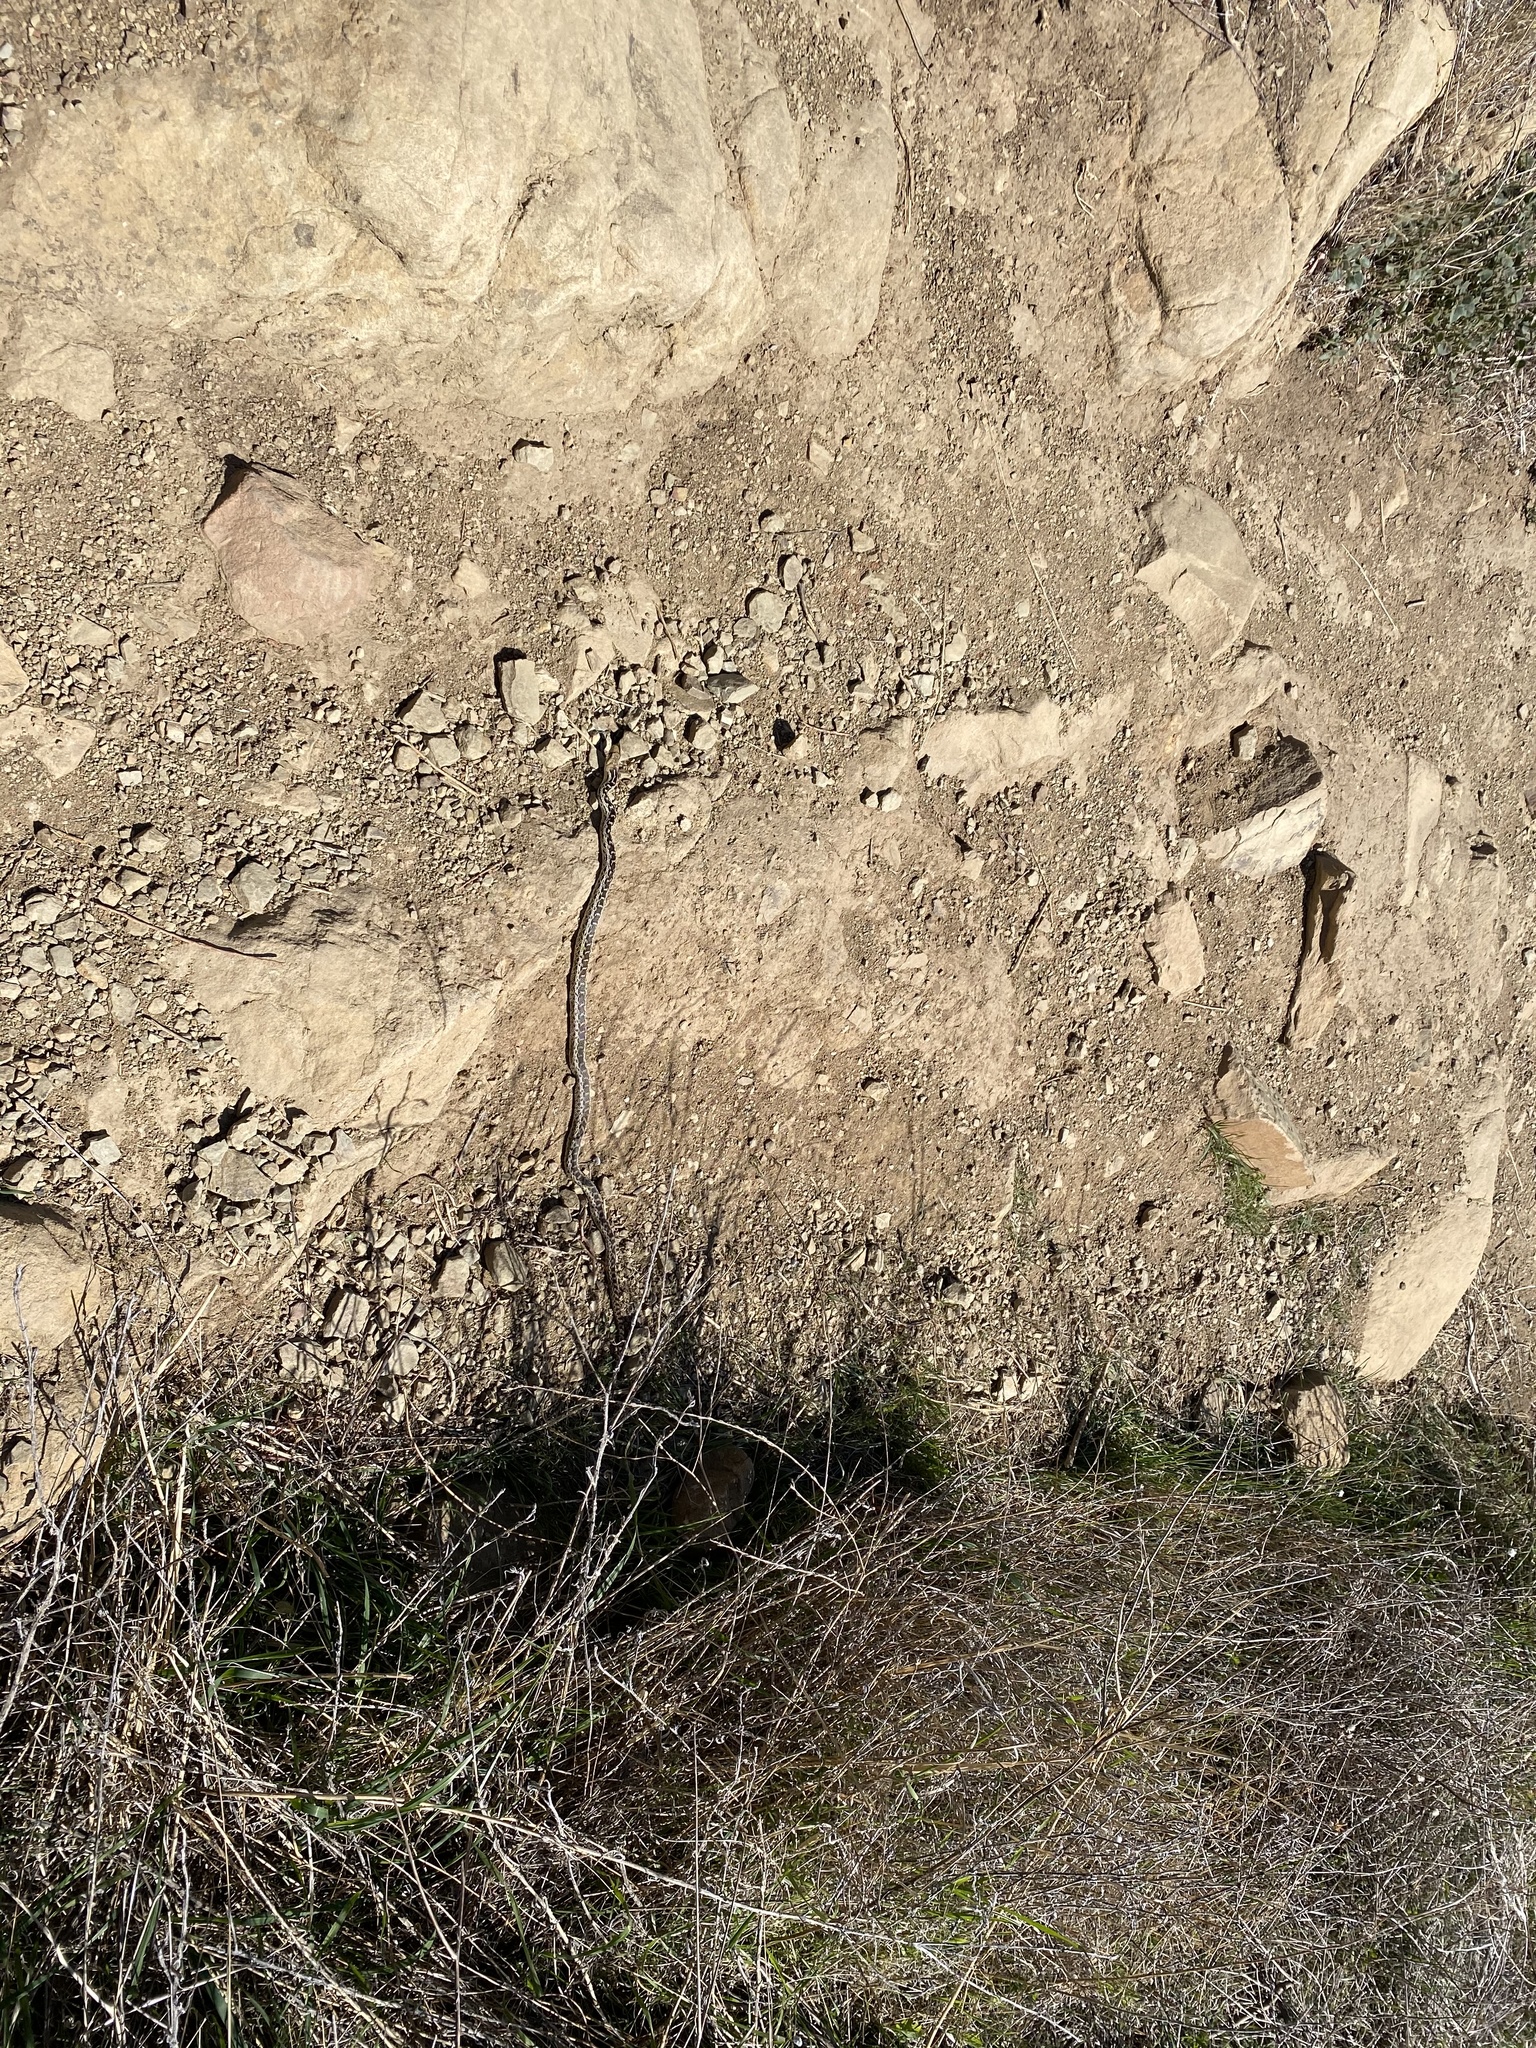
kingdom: Animalia
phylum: Chordata
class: Squamata
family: Colubridae
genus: Pituophis
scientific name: Pituophis catenifer
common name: Gopher snake
